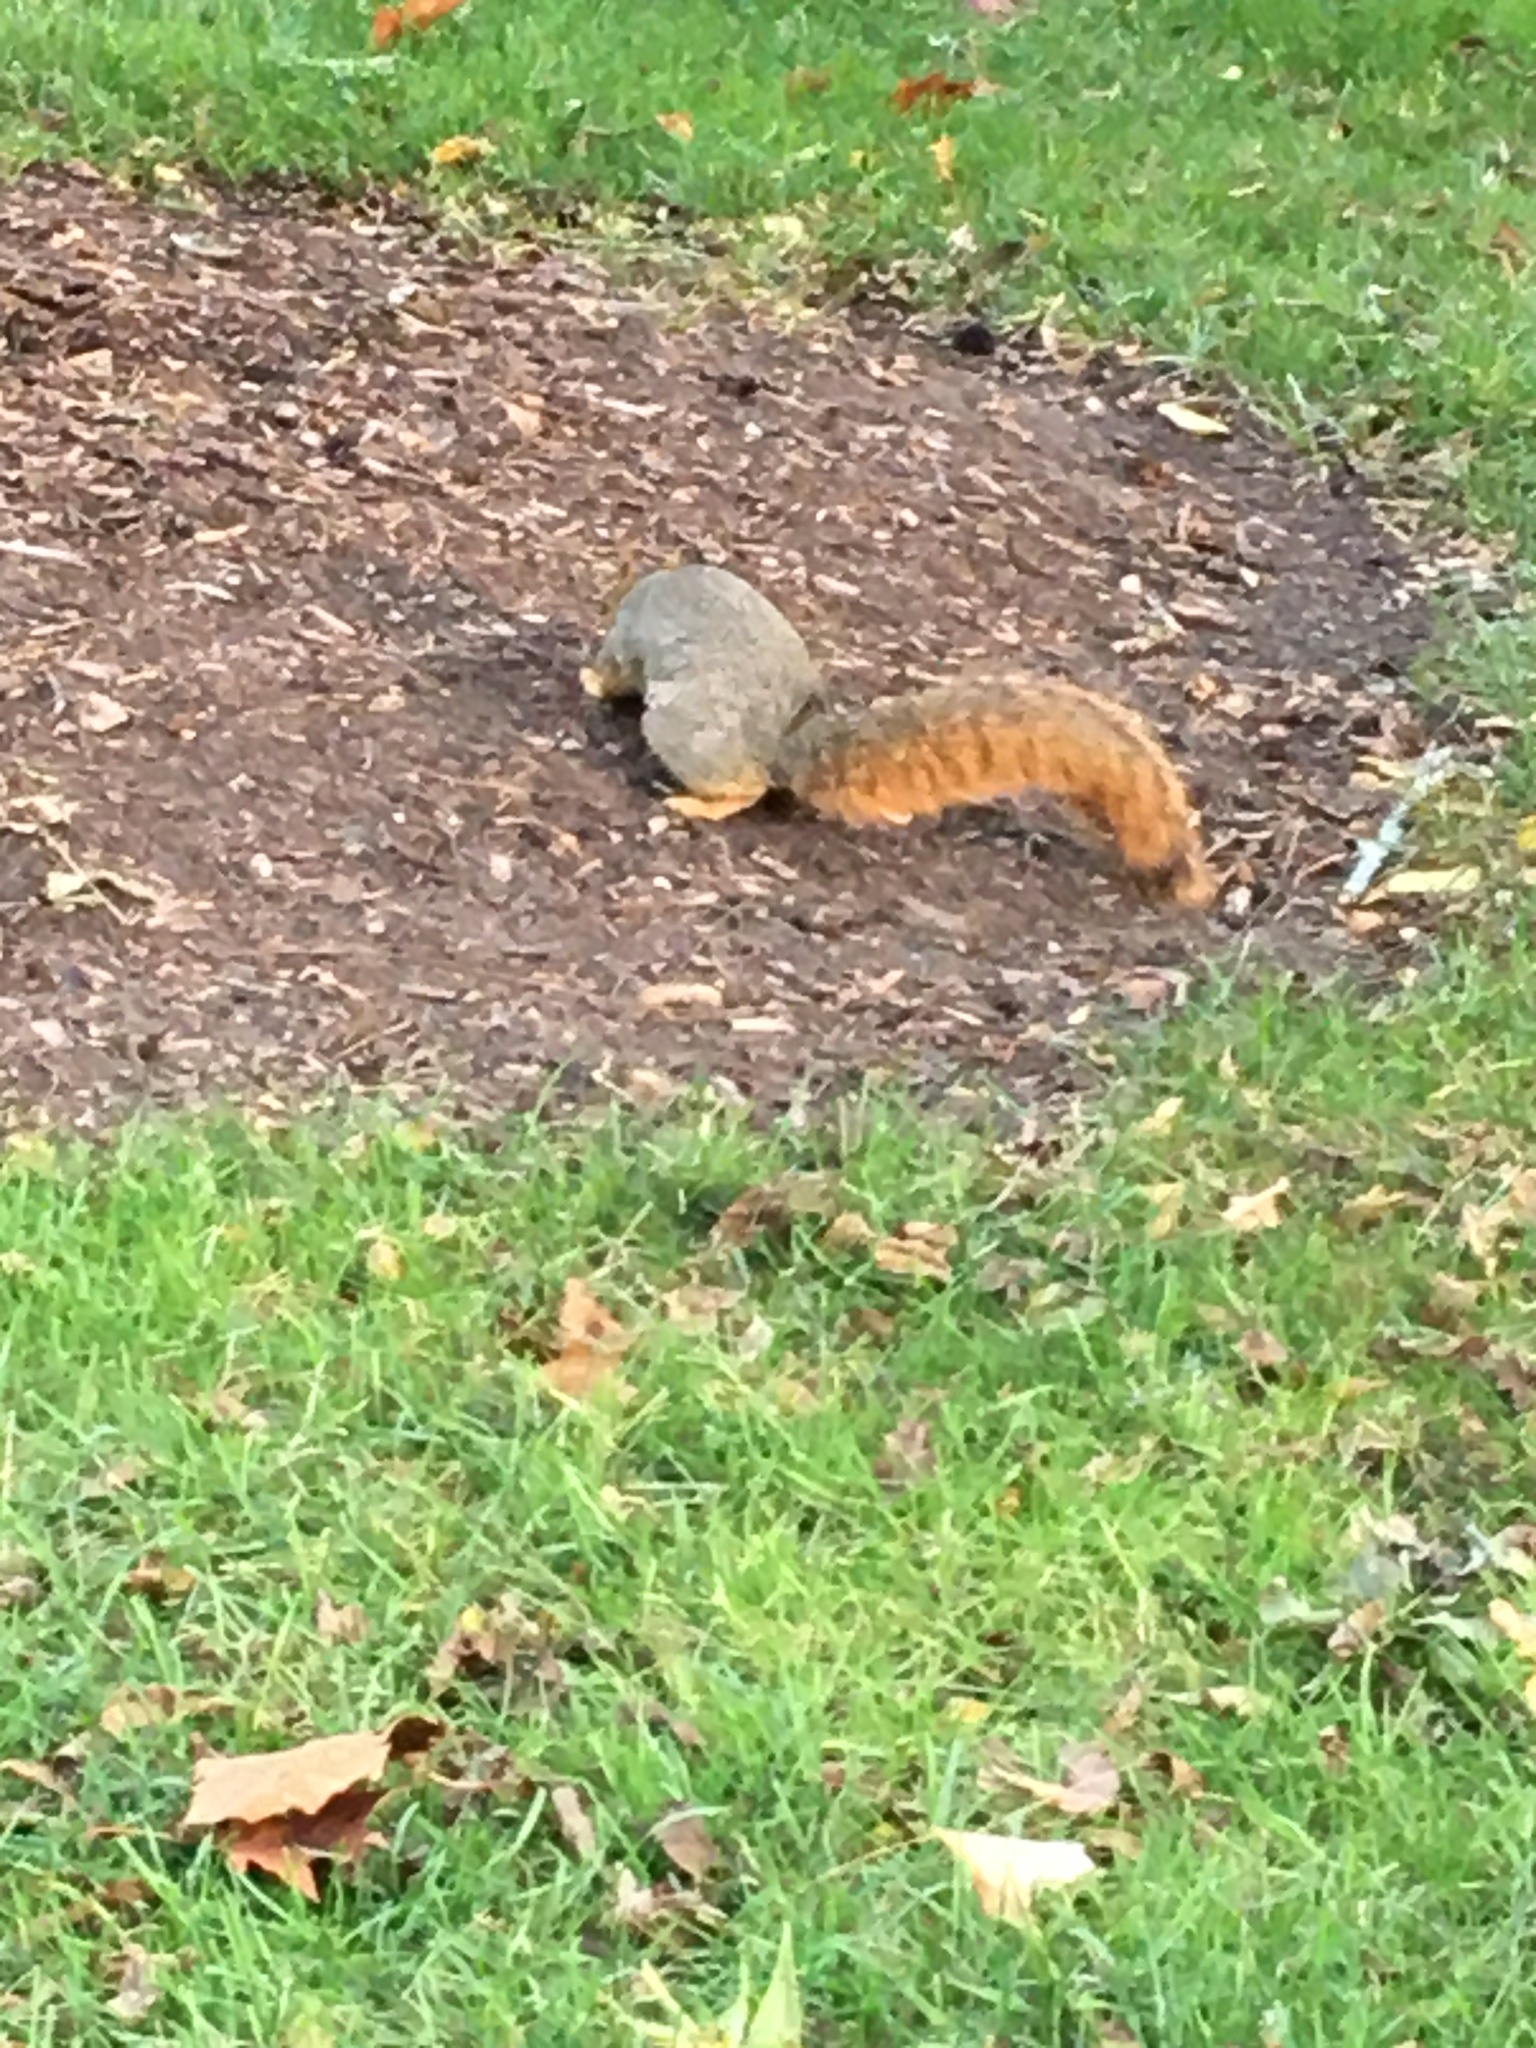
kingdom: Animalia
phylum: Chordata
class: Mammalia
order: Rodentia
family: Sciuridae
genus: Sciurus
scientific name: Sciurus niger
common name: Fox squirrel
